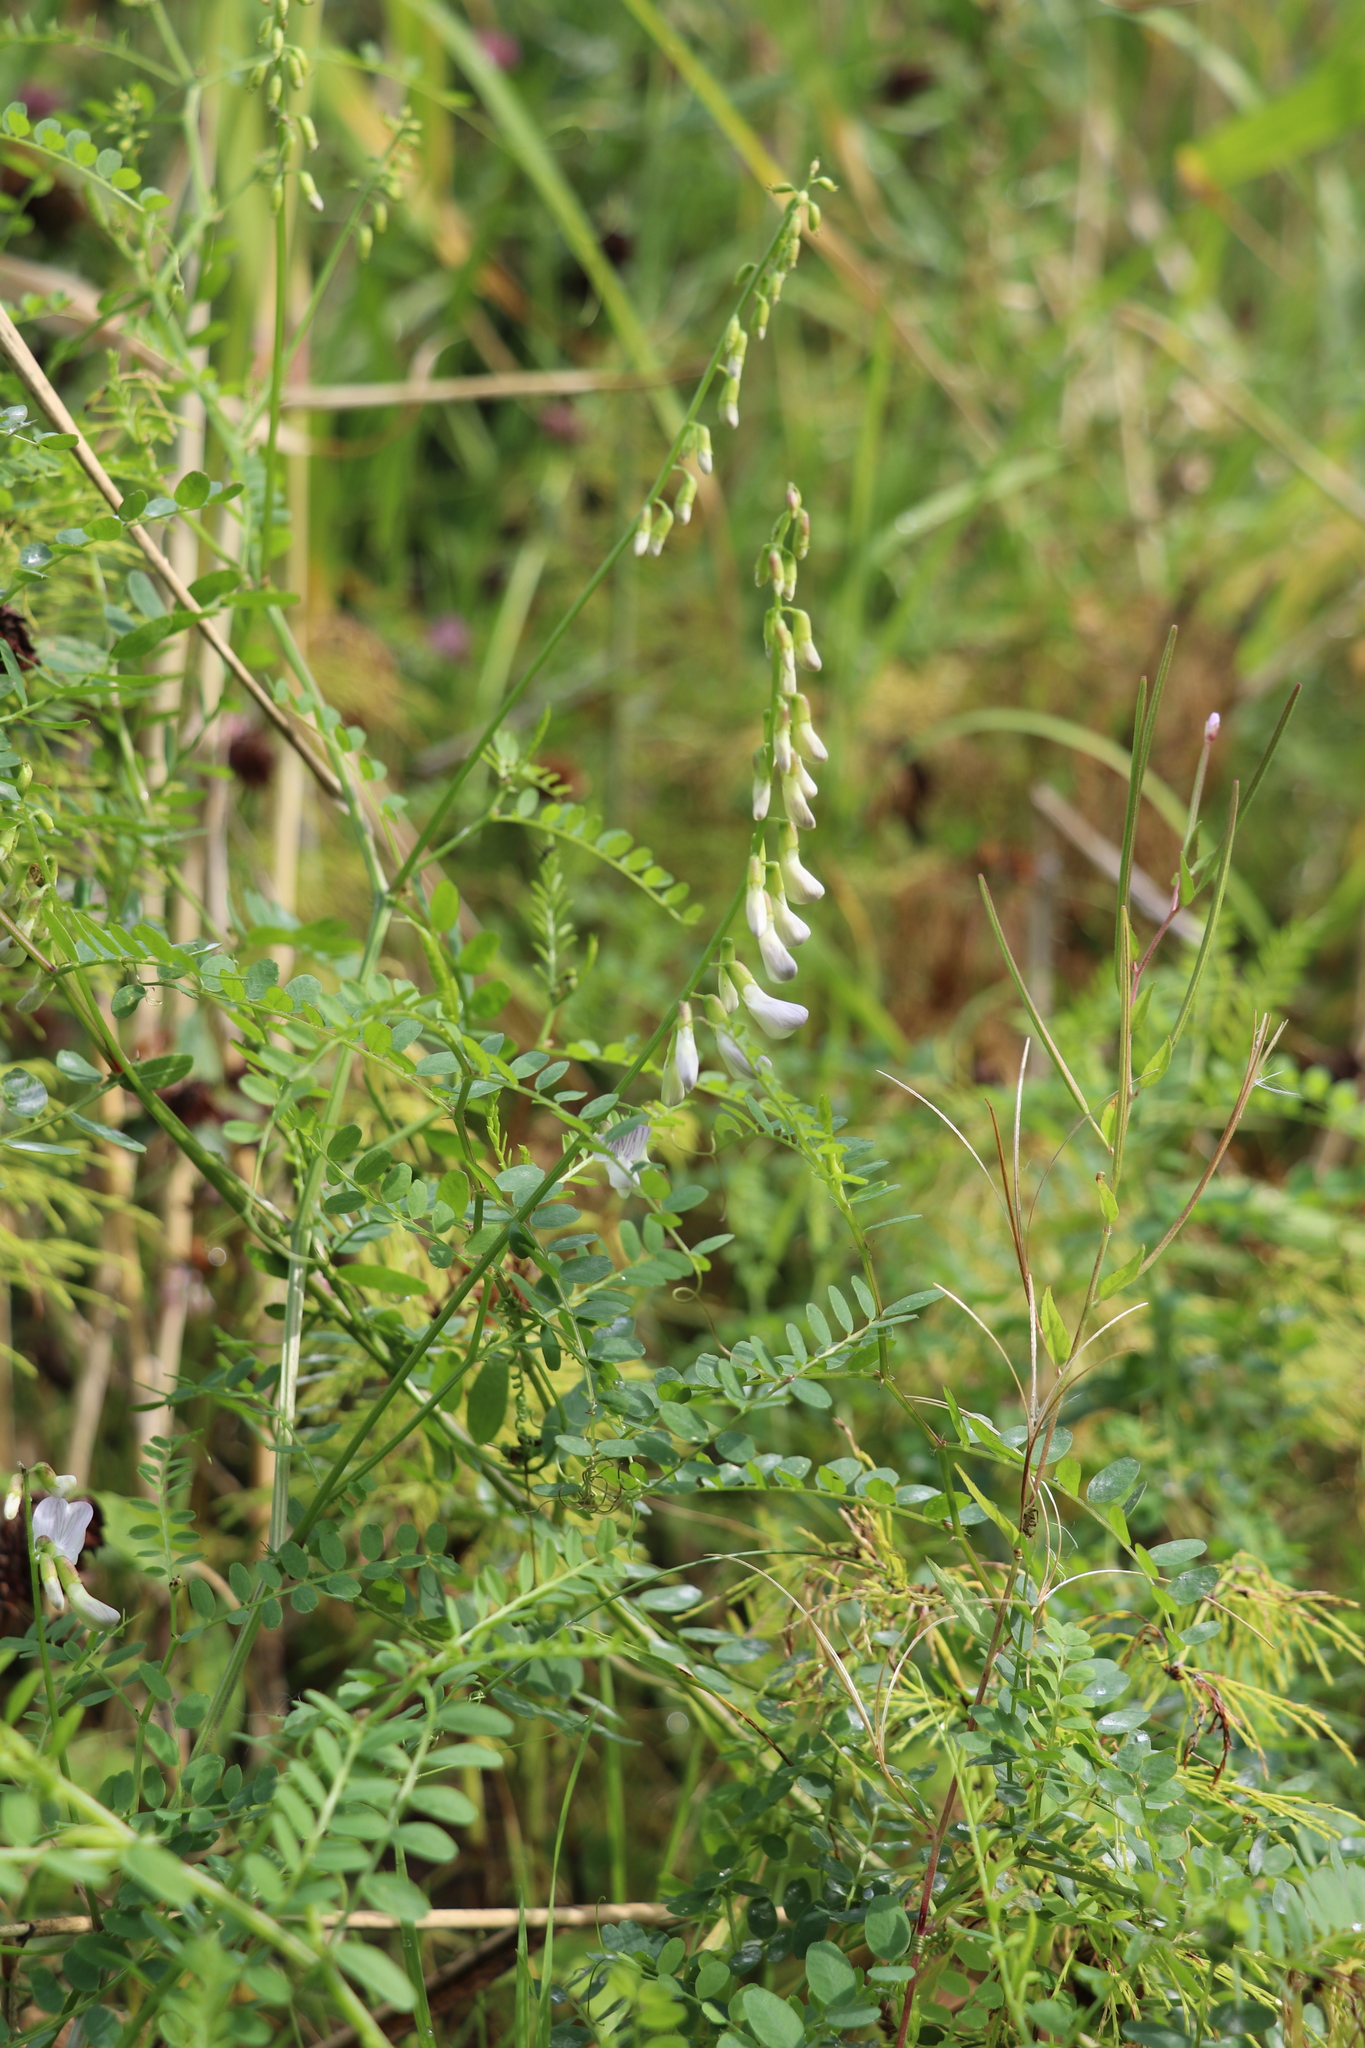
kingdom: Plantae
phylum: Tracheophyta
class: Magnoliopsida
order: Fabales
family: Fabaceae
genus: Vicia
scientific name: Vicia sylvatica
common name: Wood vetch
